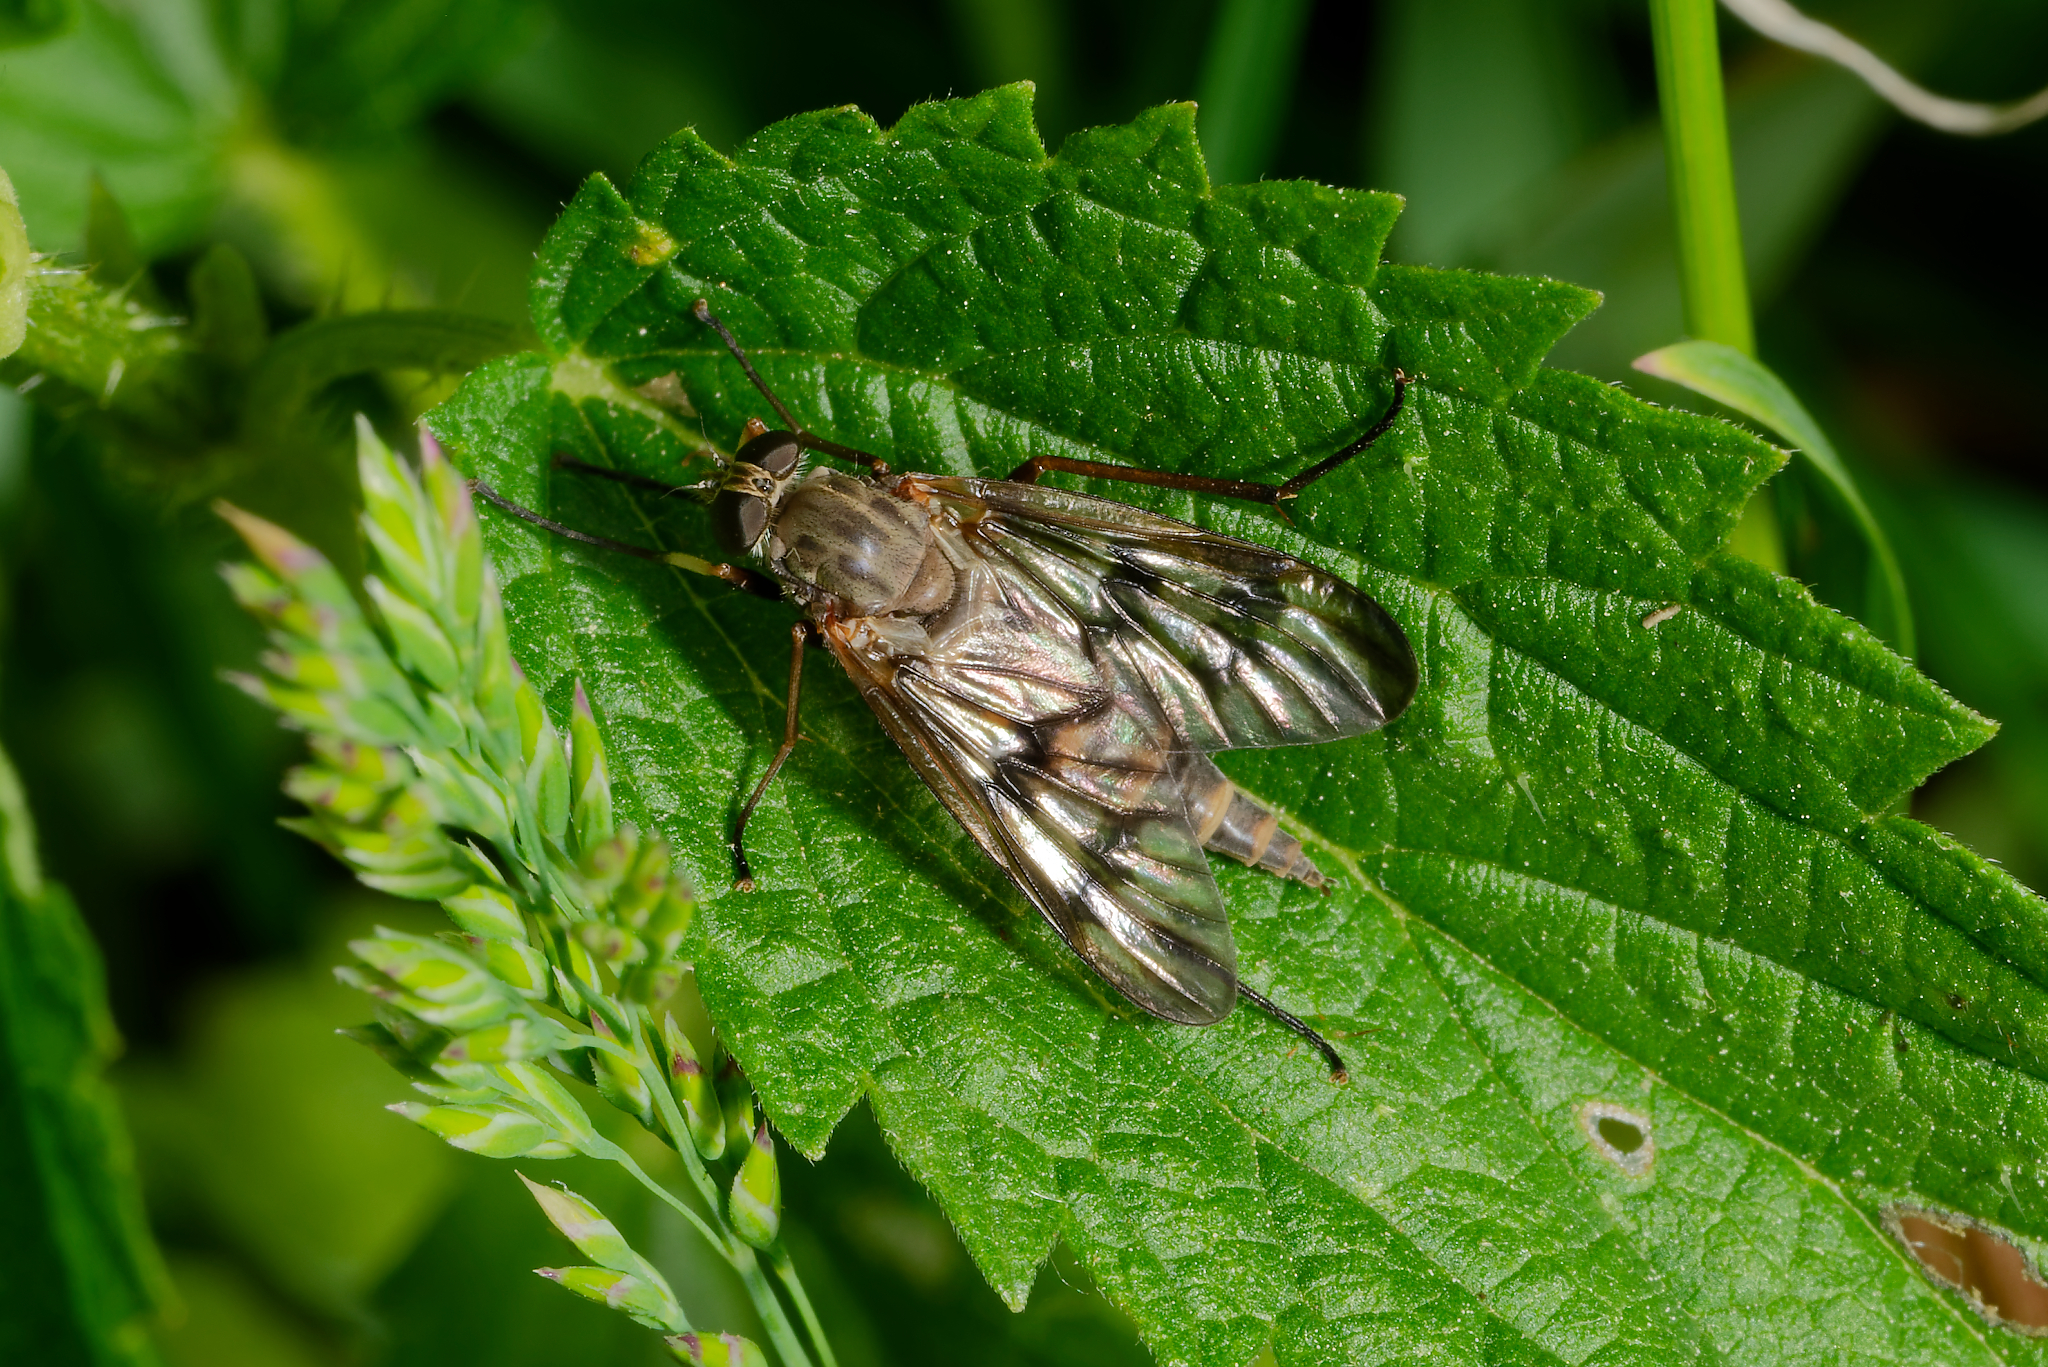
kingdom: Animalia
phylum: Arthropoda
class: Insecta
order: Diptera
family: Rhagionidae
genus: Rhagio
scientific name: Rhagio mystaceus
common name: Common snipe fly
